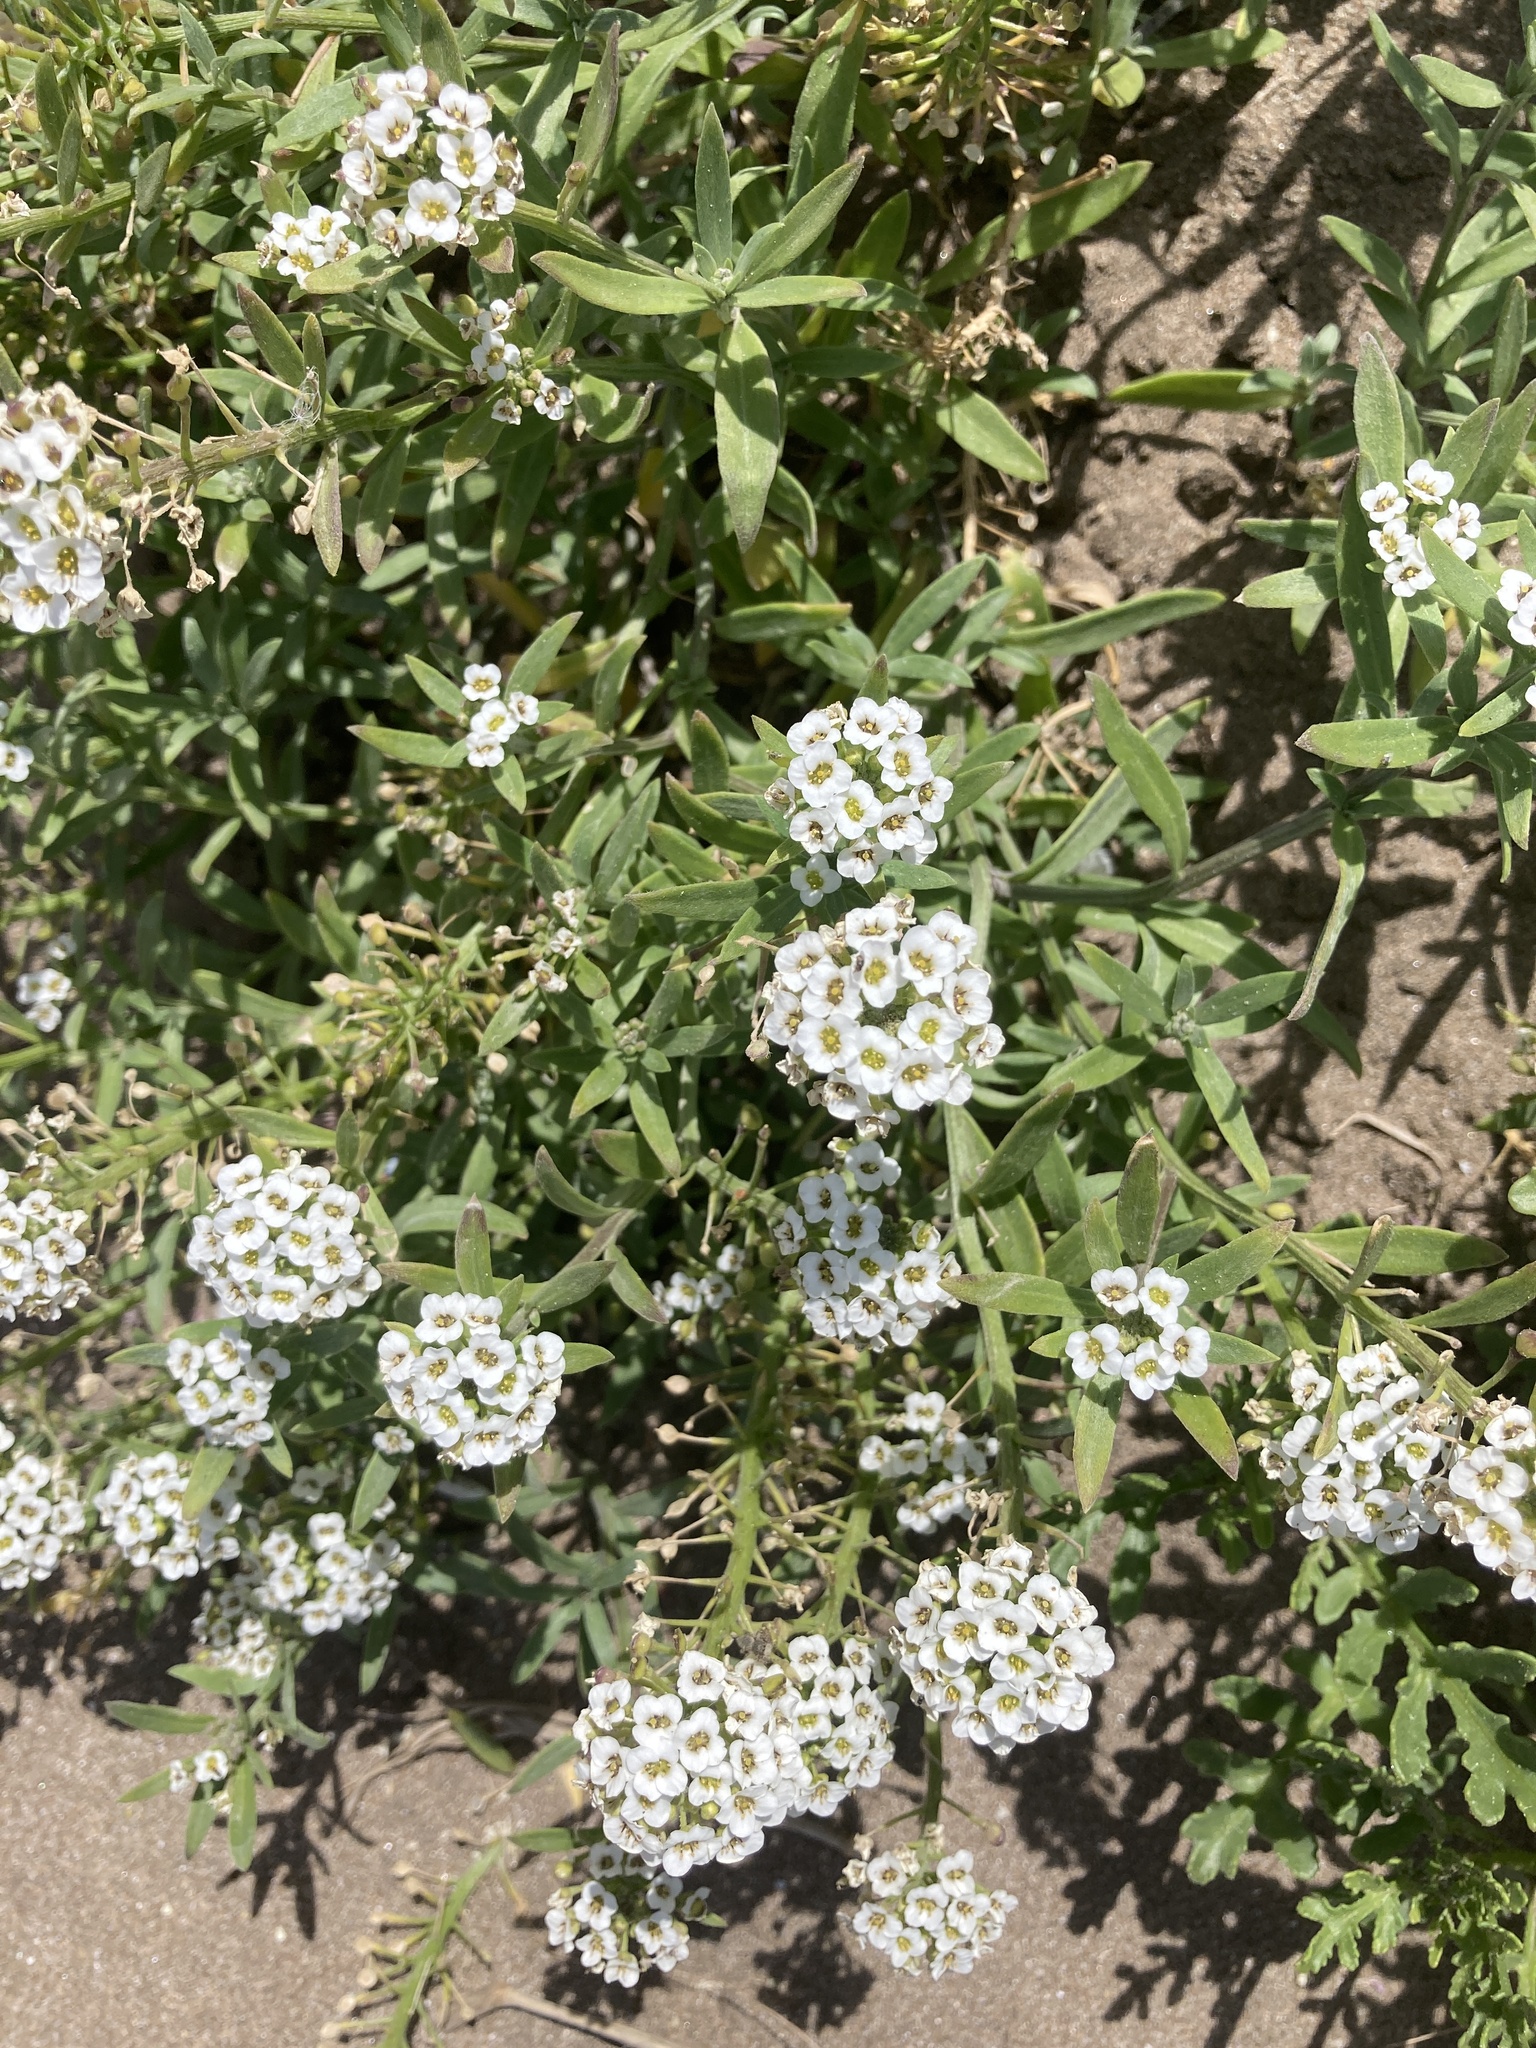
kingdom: Plantae
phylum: Tracheophyta
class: Magnoliopsida
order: Brassicales
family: Brassicaceae
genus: Lobularia
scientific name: Lobularia maritima
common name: Sweet alison
